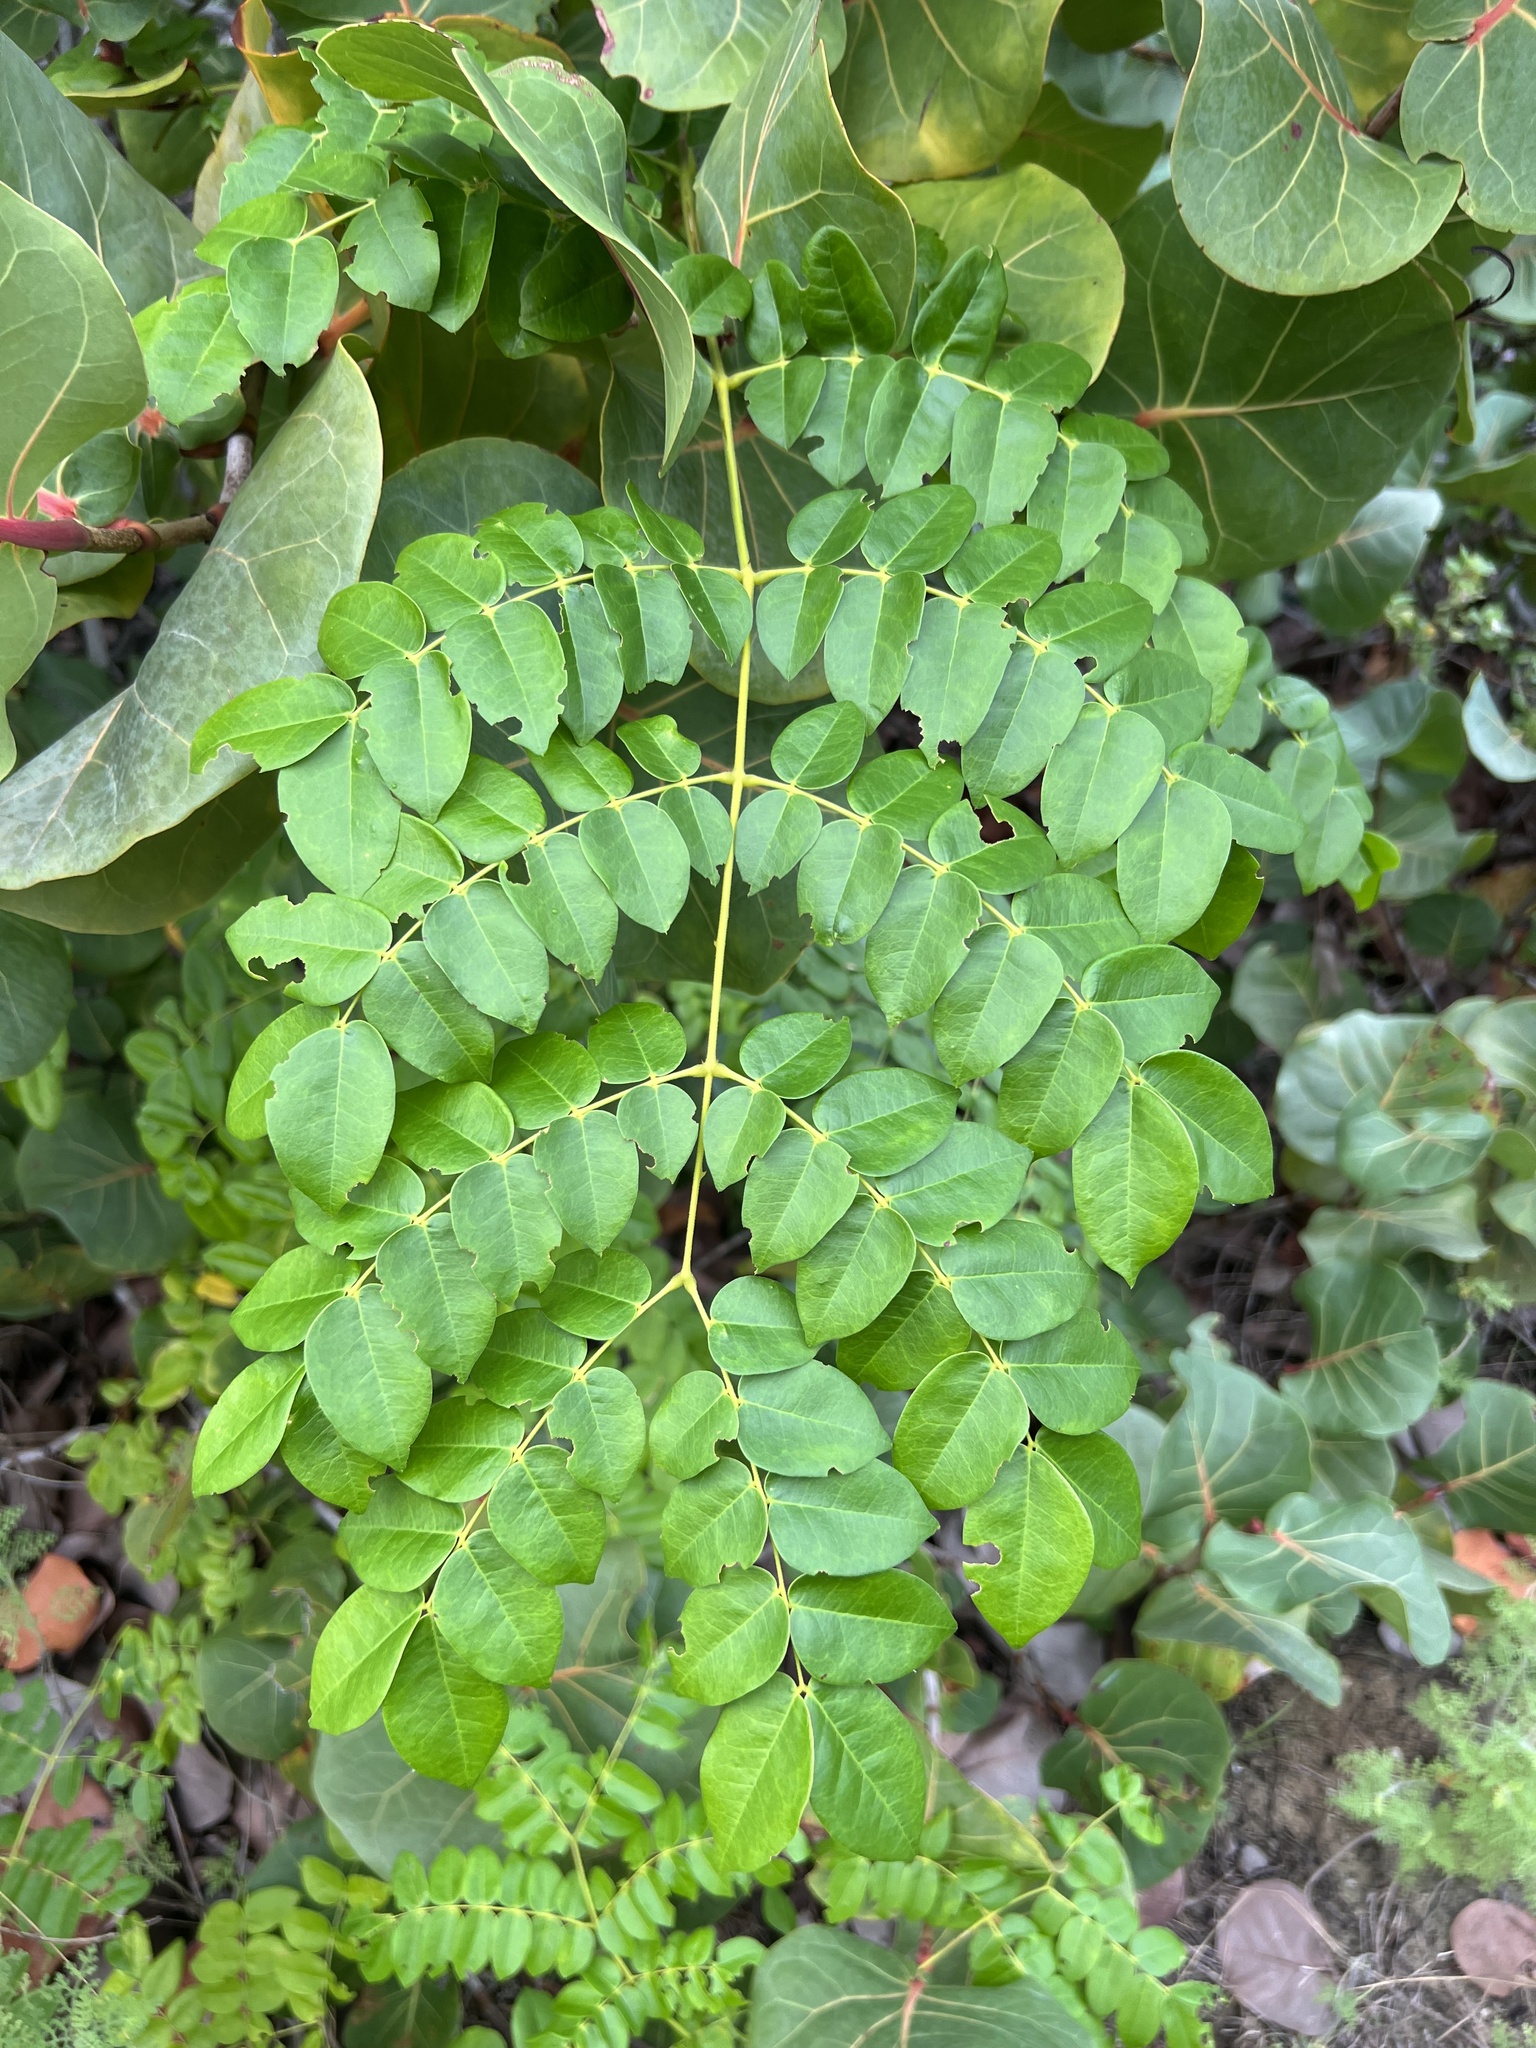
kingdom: Plantae
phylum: Tracheophyta
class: Magnoliopsida
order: Fabales
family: Fabaceae
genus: Guilandina
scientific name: Guilandina bonduc
